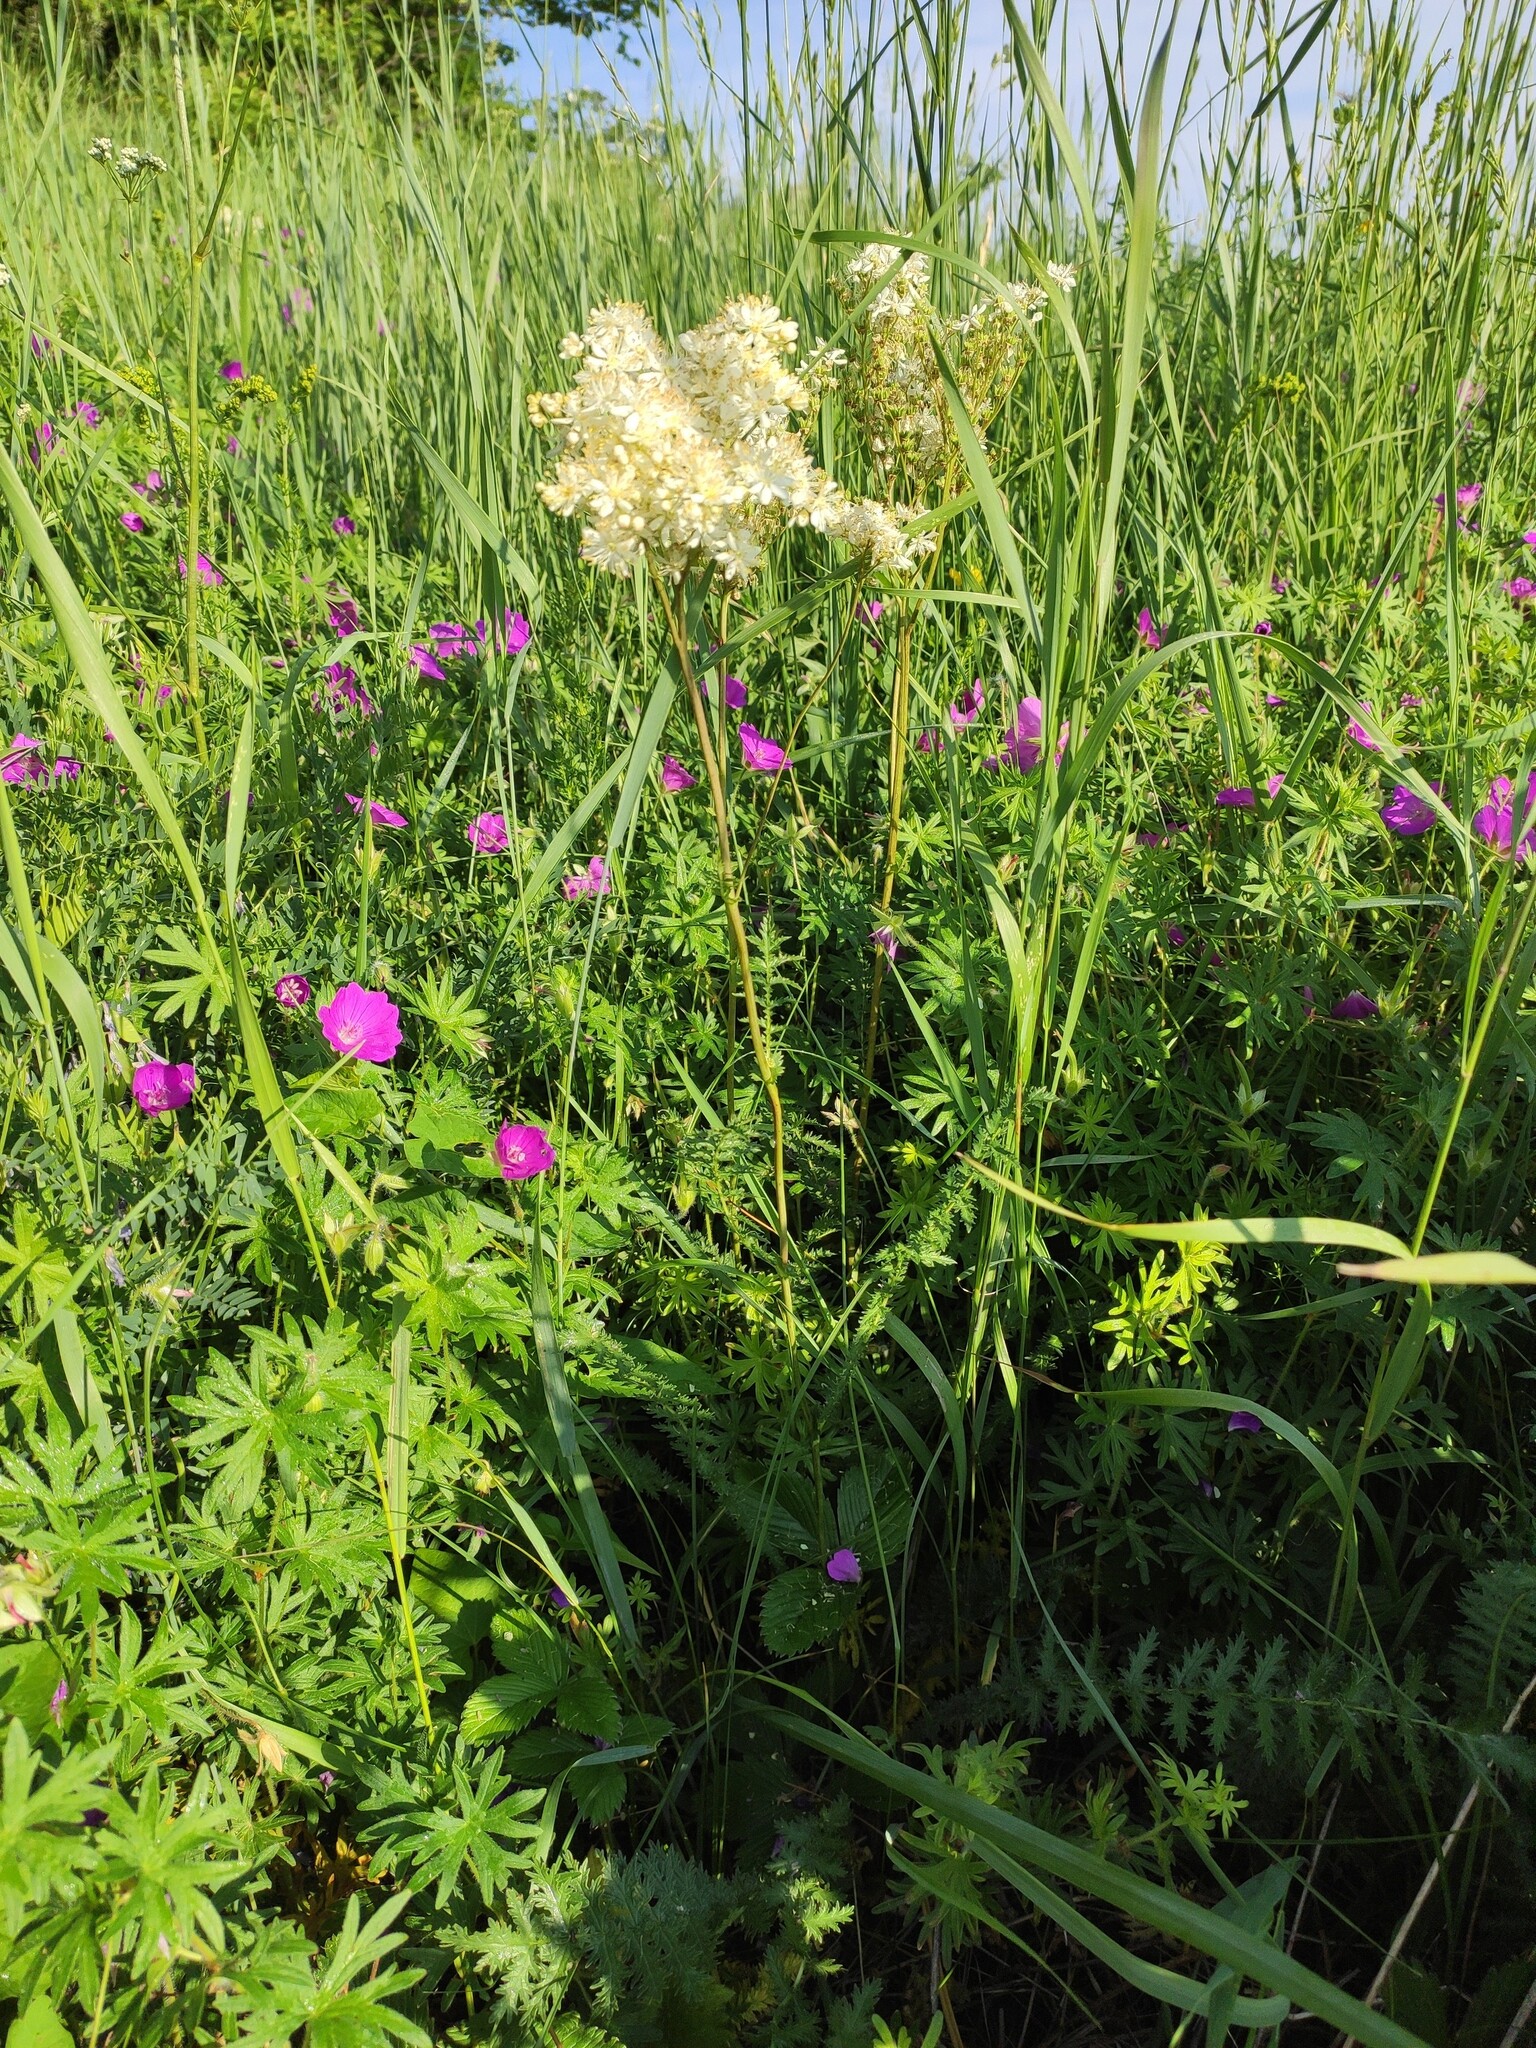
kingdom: Plantae
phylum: Tracheophyta
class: Magnoliopsida
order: Rosales
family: Rosaceae
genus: Filipendula
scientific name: Filipendula vulgaris
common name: Dropwort
